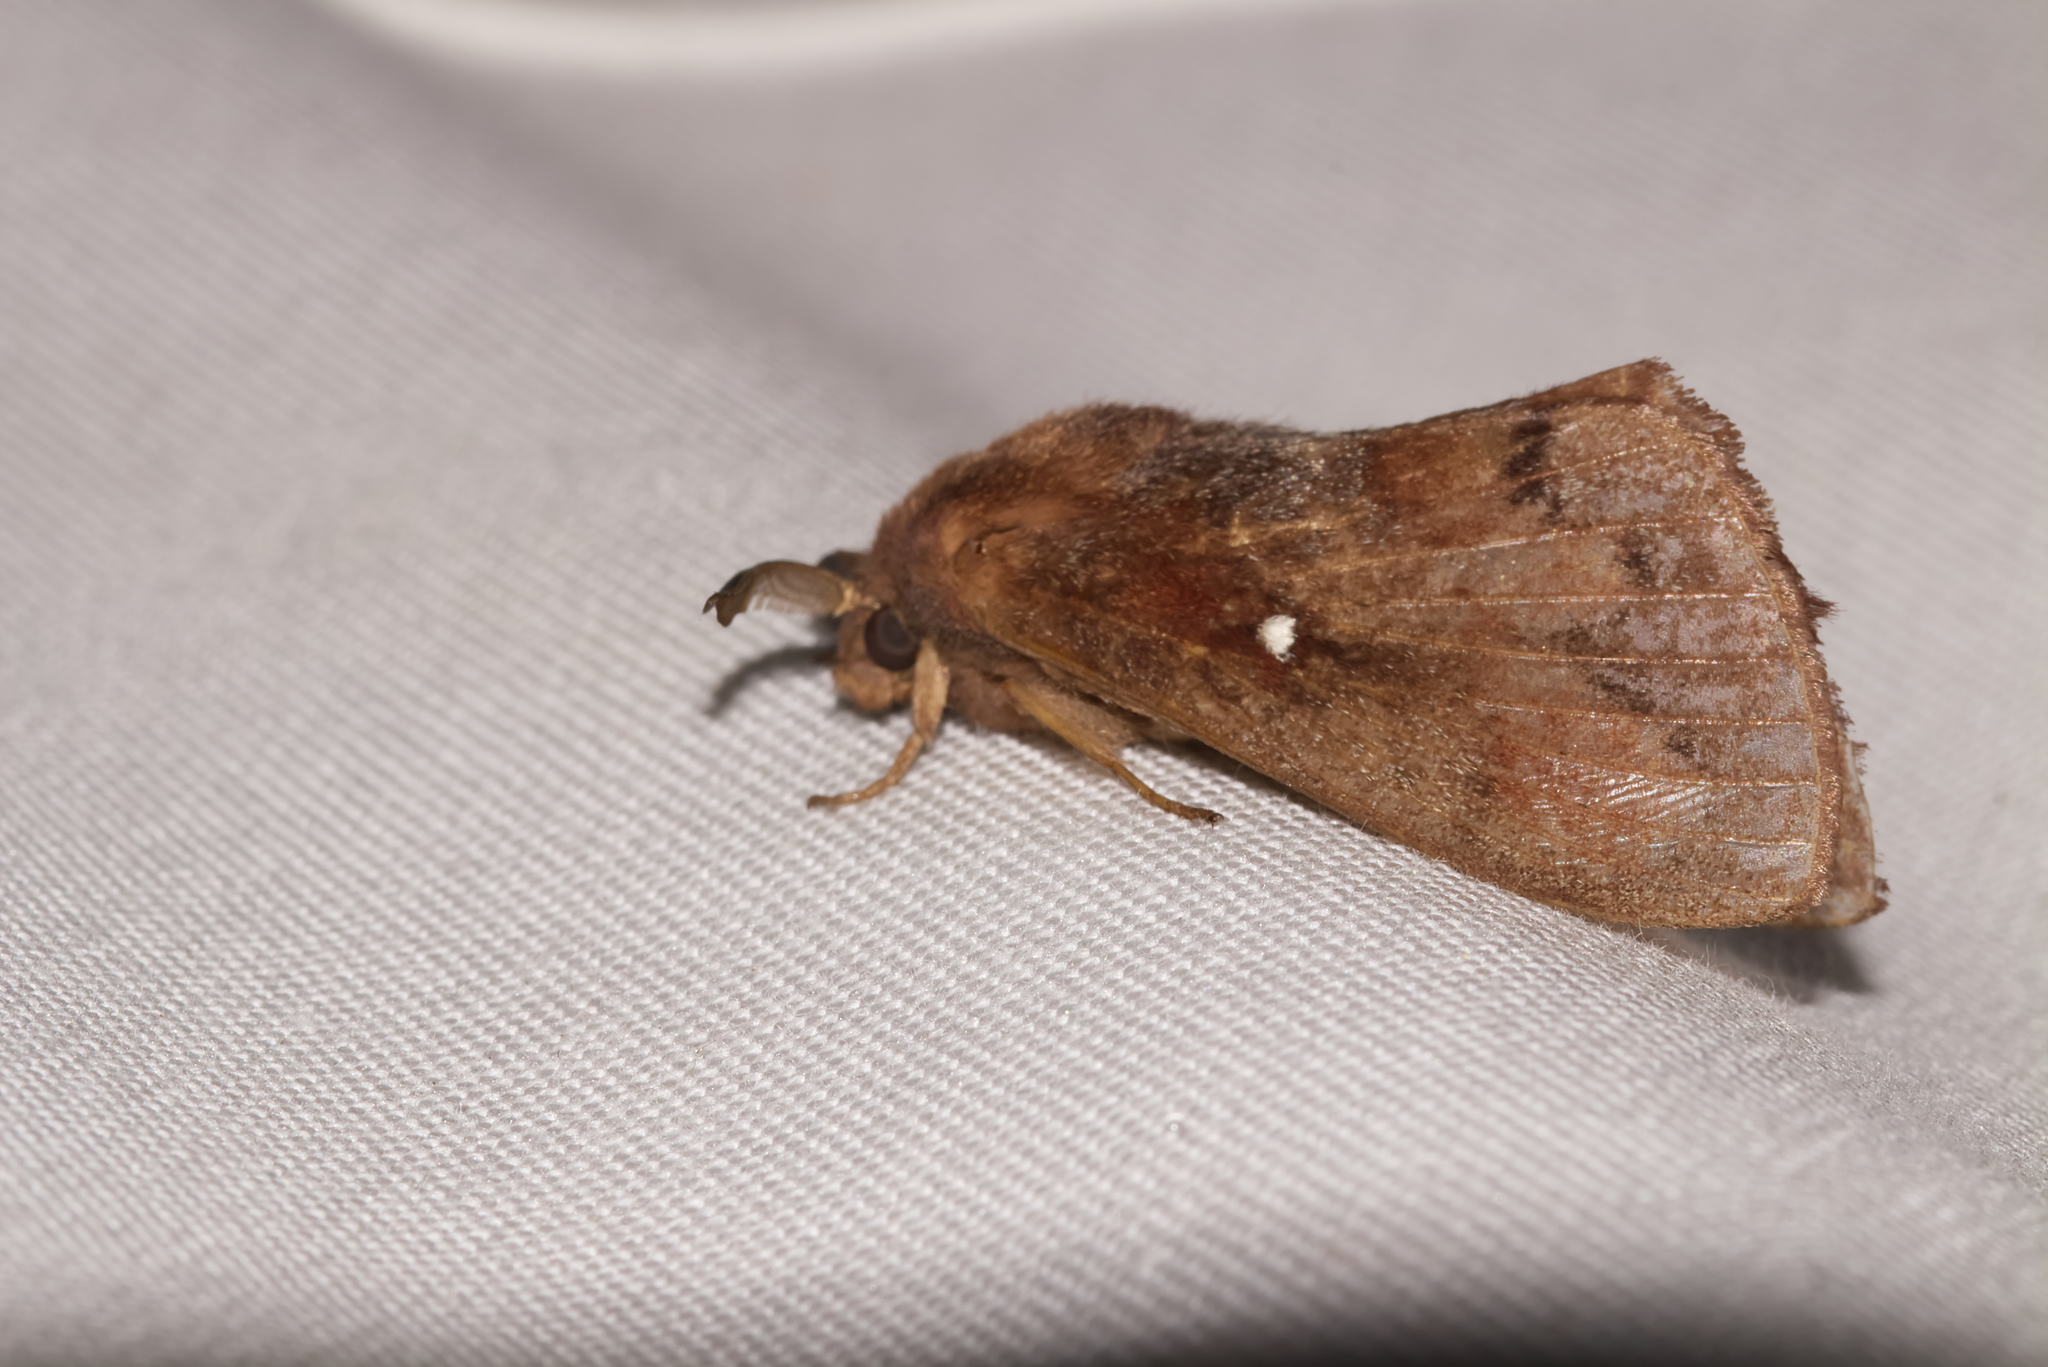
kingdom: Animalia
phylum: Arthropoda
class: Insecta
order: Lepidoptera
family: Lasiocampidae
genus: Dendrolimus
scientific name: Dendrolimus pini
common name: Pine-tree lappet
